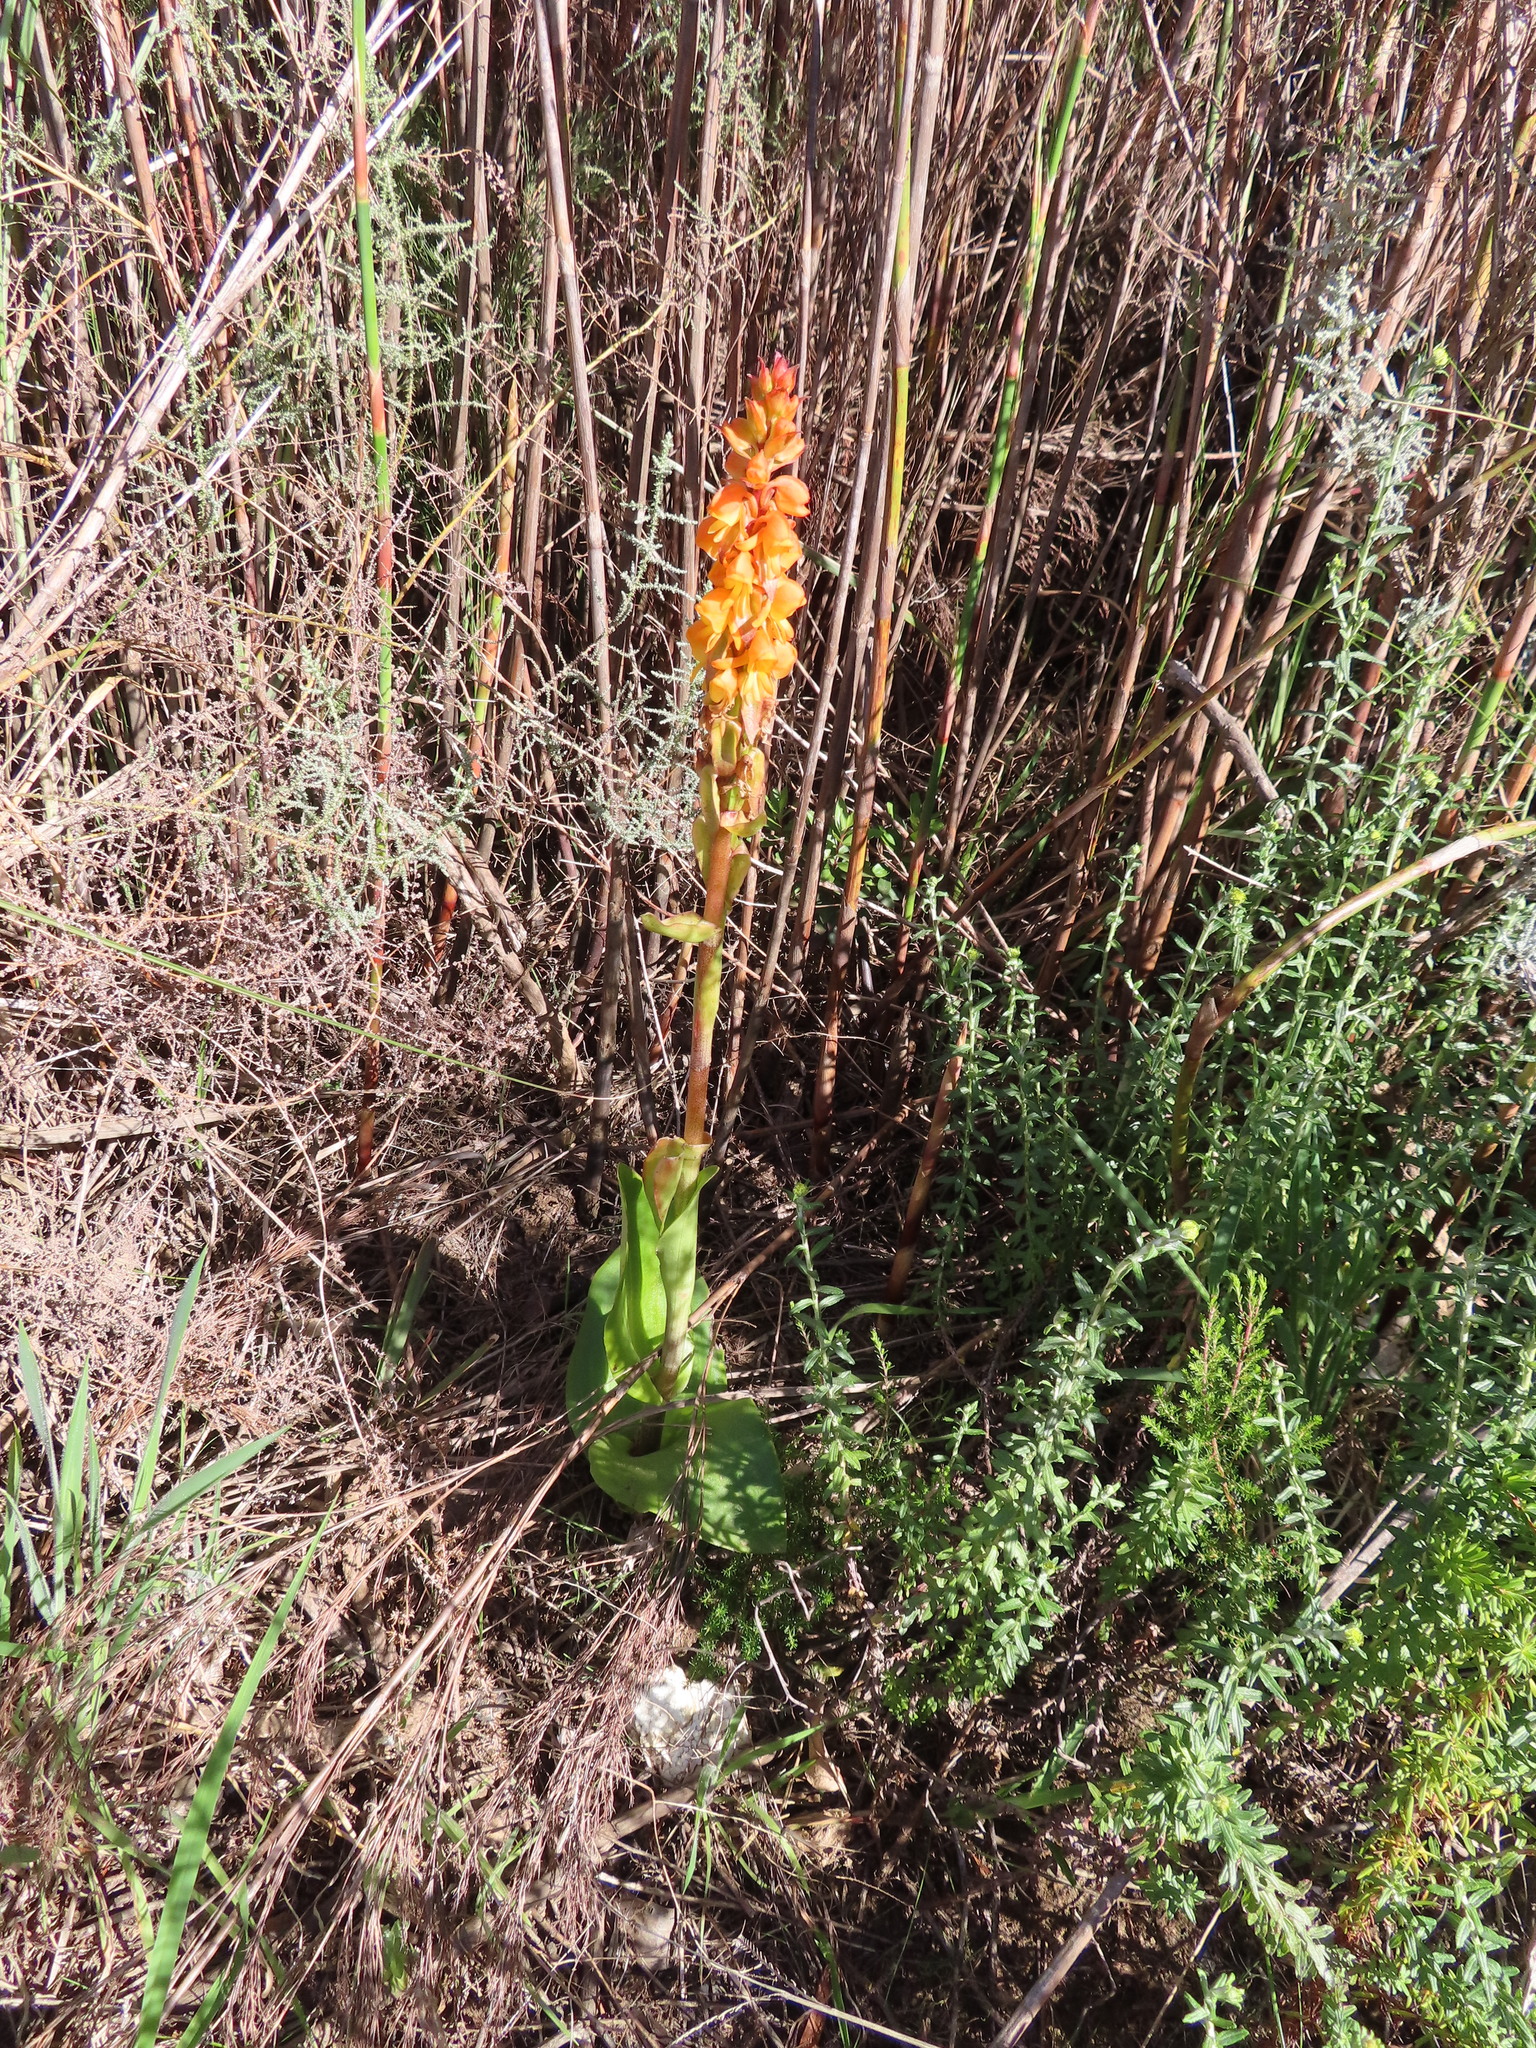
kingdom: Plantae
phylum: Tracheophyta
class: Liliopsida
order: Asparagales
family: Orchidaceae
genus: Satyrium
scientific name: Satyrium coriifolium
